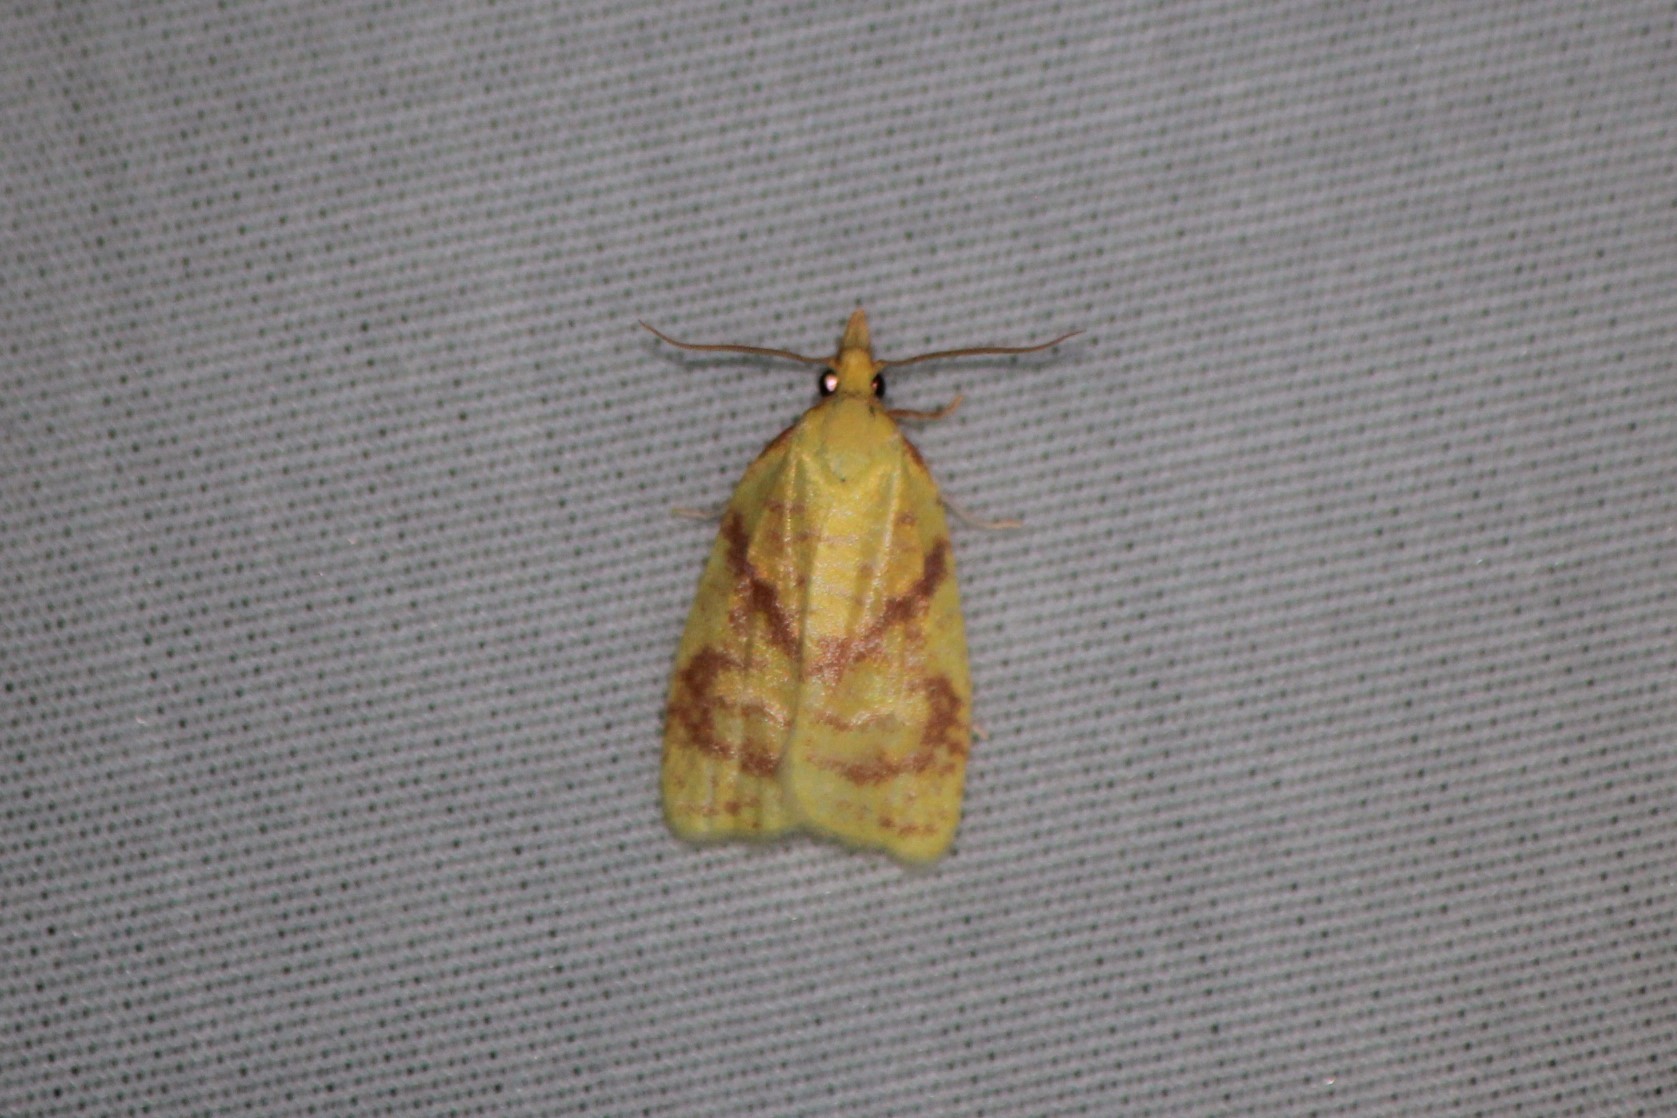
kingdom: Animalia
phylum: Arthropoda
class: Insecta
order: Lepidoptera
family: Tortricidae
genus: Cenopis
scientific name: Cenopis pettitana
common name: Maple-basswood leafroller moth
